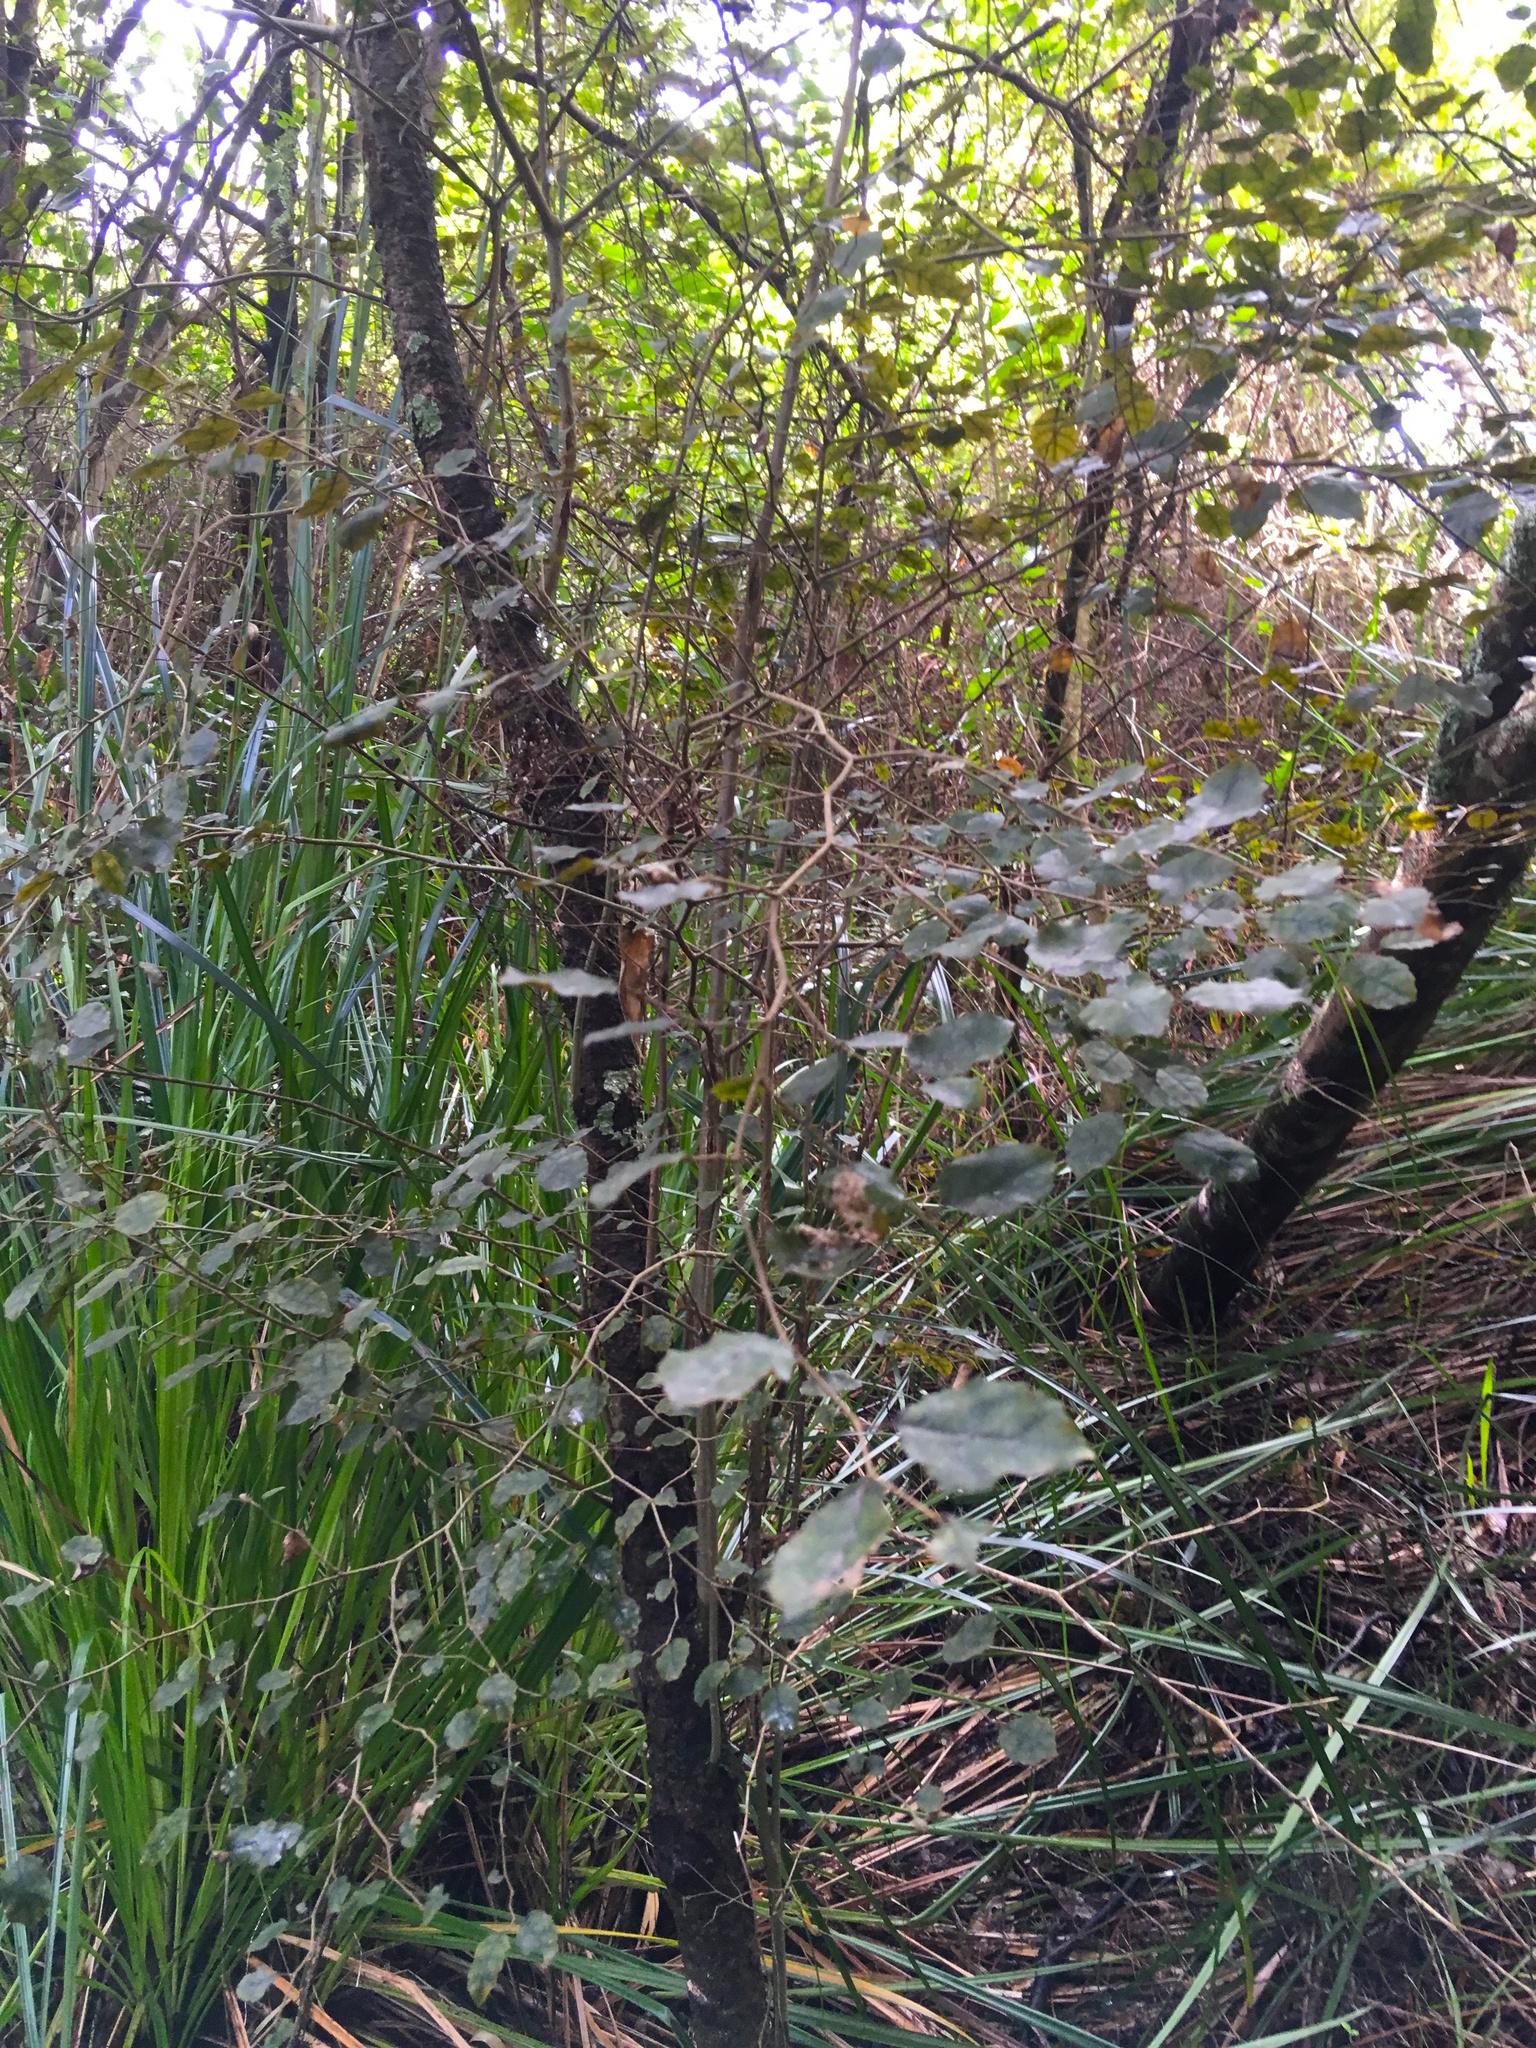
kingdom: Plantae
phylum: Tracheophyta
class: Magnoliopsida
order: Asterales
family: Rousseaceae
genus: Carpodetus
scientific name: Carpodetus serratus
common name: White mapau
